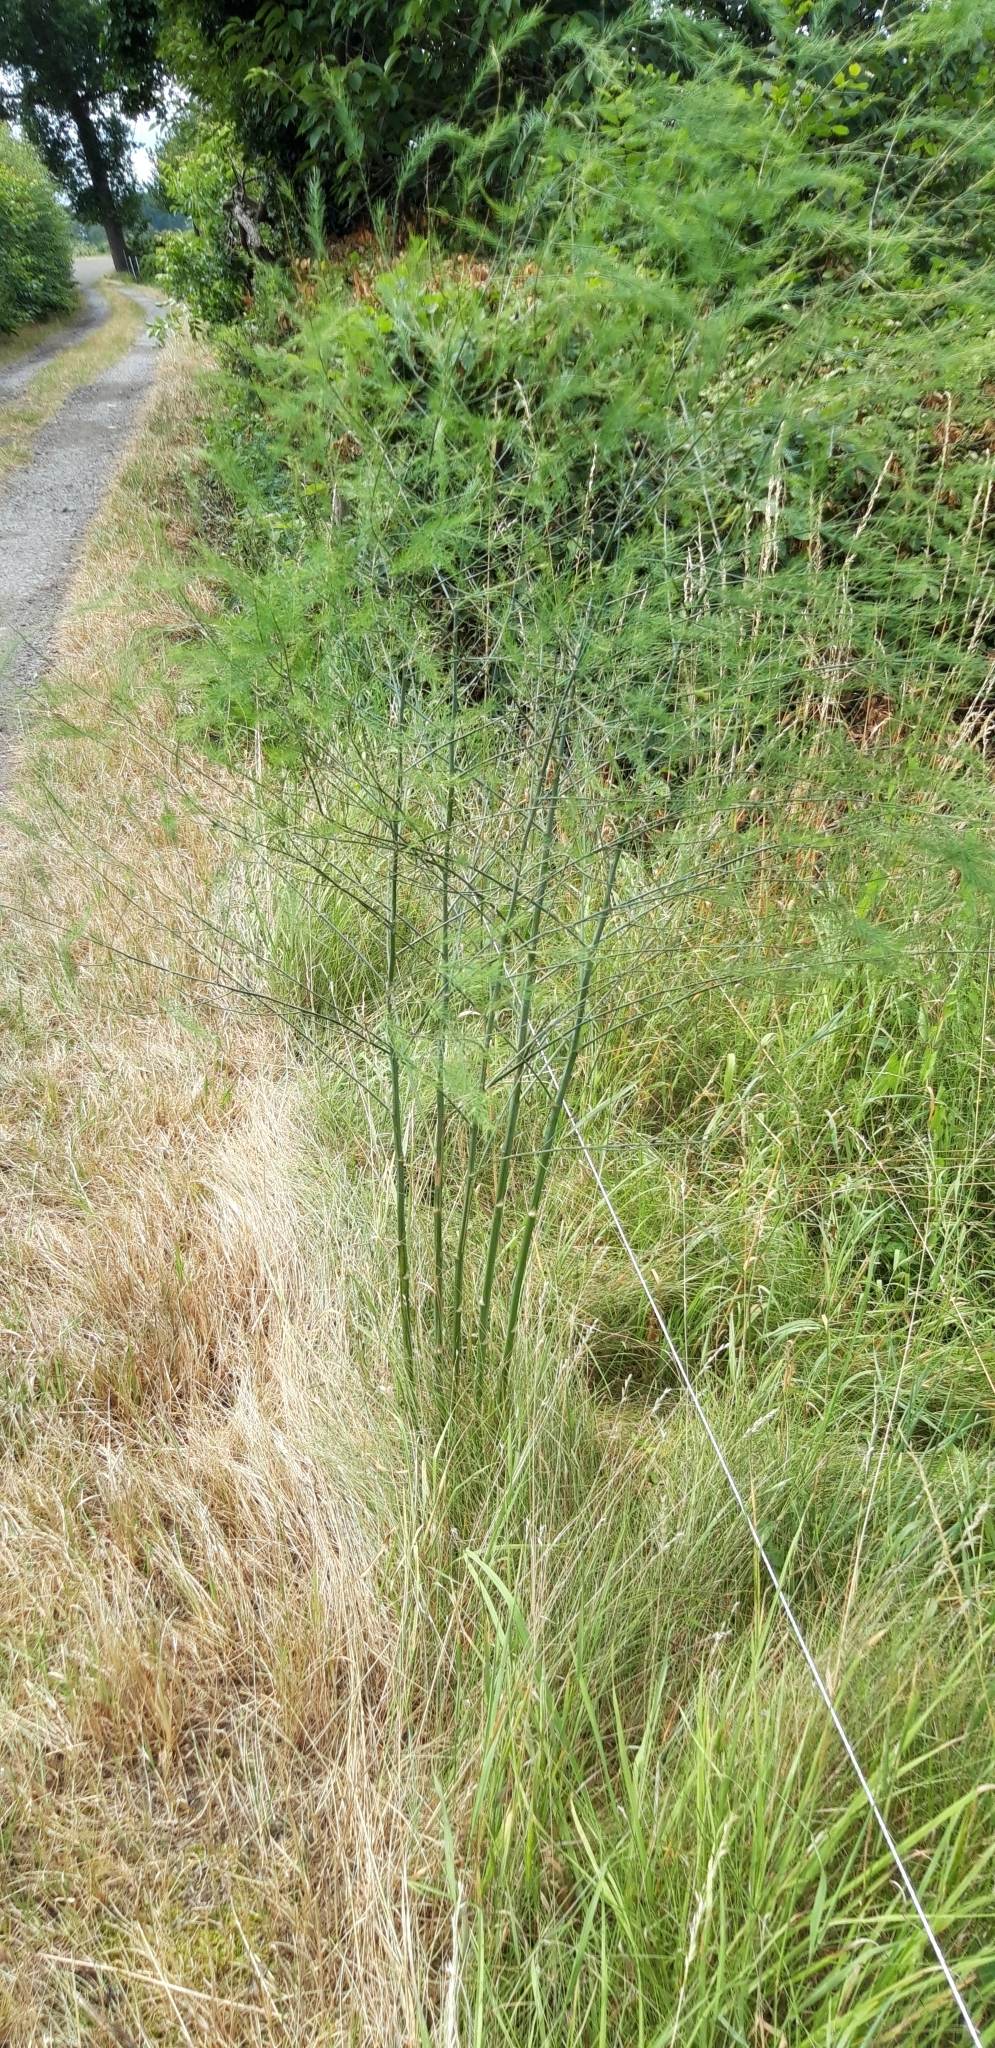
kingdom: Plantae
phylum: Tracheophyta
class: Liliopsida
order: Asparagales
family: Asparagaceae
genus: Asparagus
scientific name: Asparagus officinalis
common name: Garden asparagus
